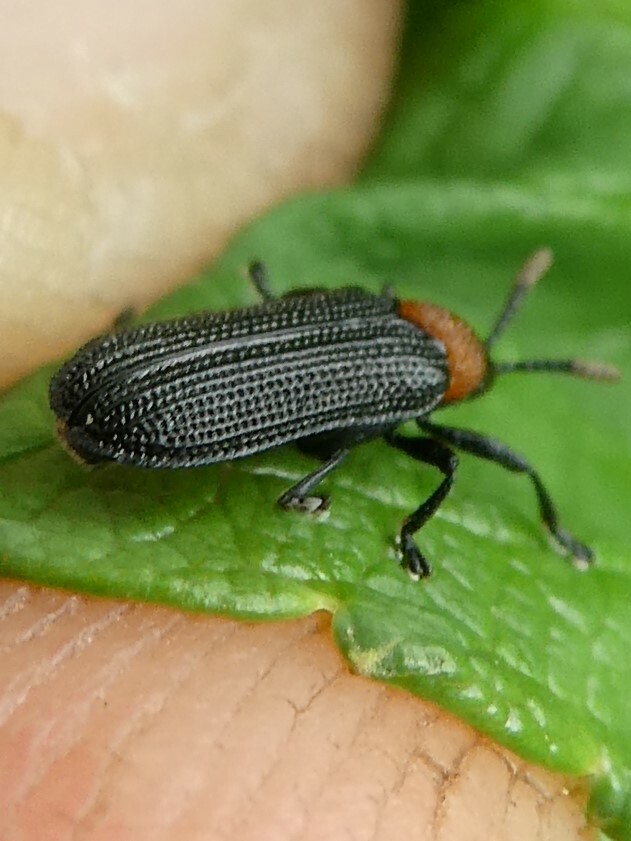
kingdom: Animalia
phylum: Arthropoda
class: Insecta
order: Coleoptera
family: Chrysomelidae
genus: Chalepus
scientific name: Chalepus walshii
